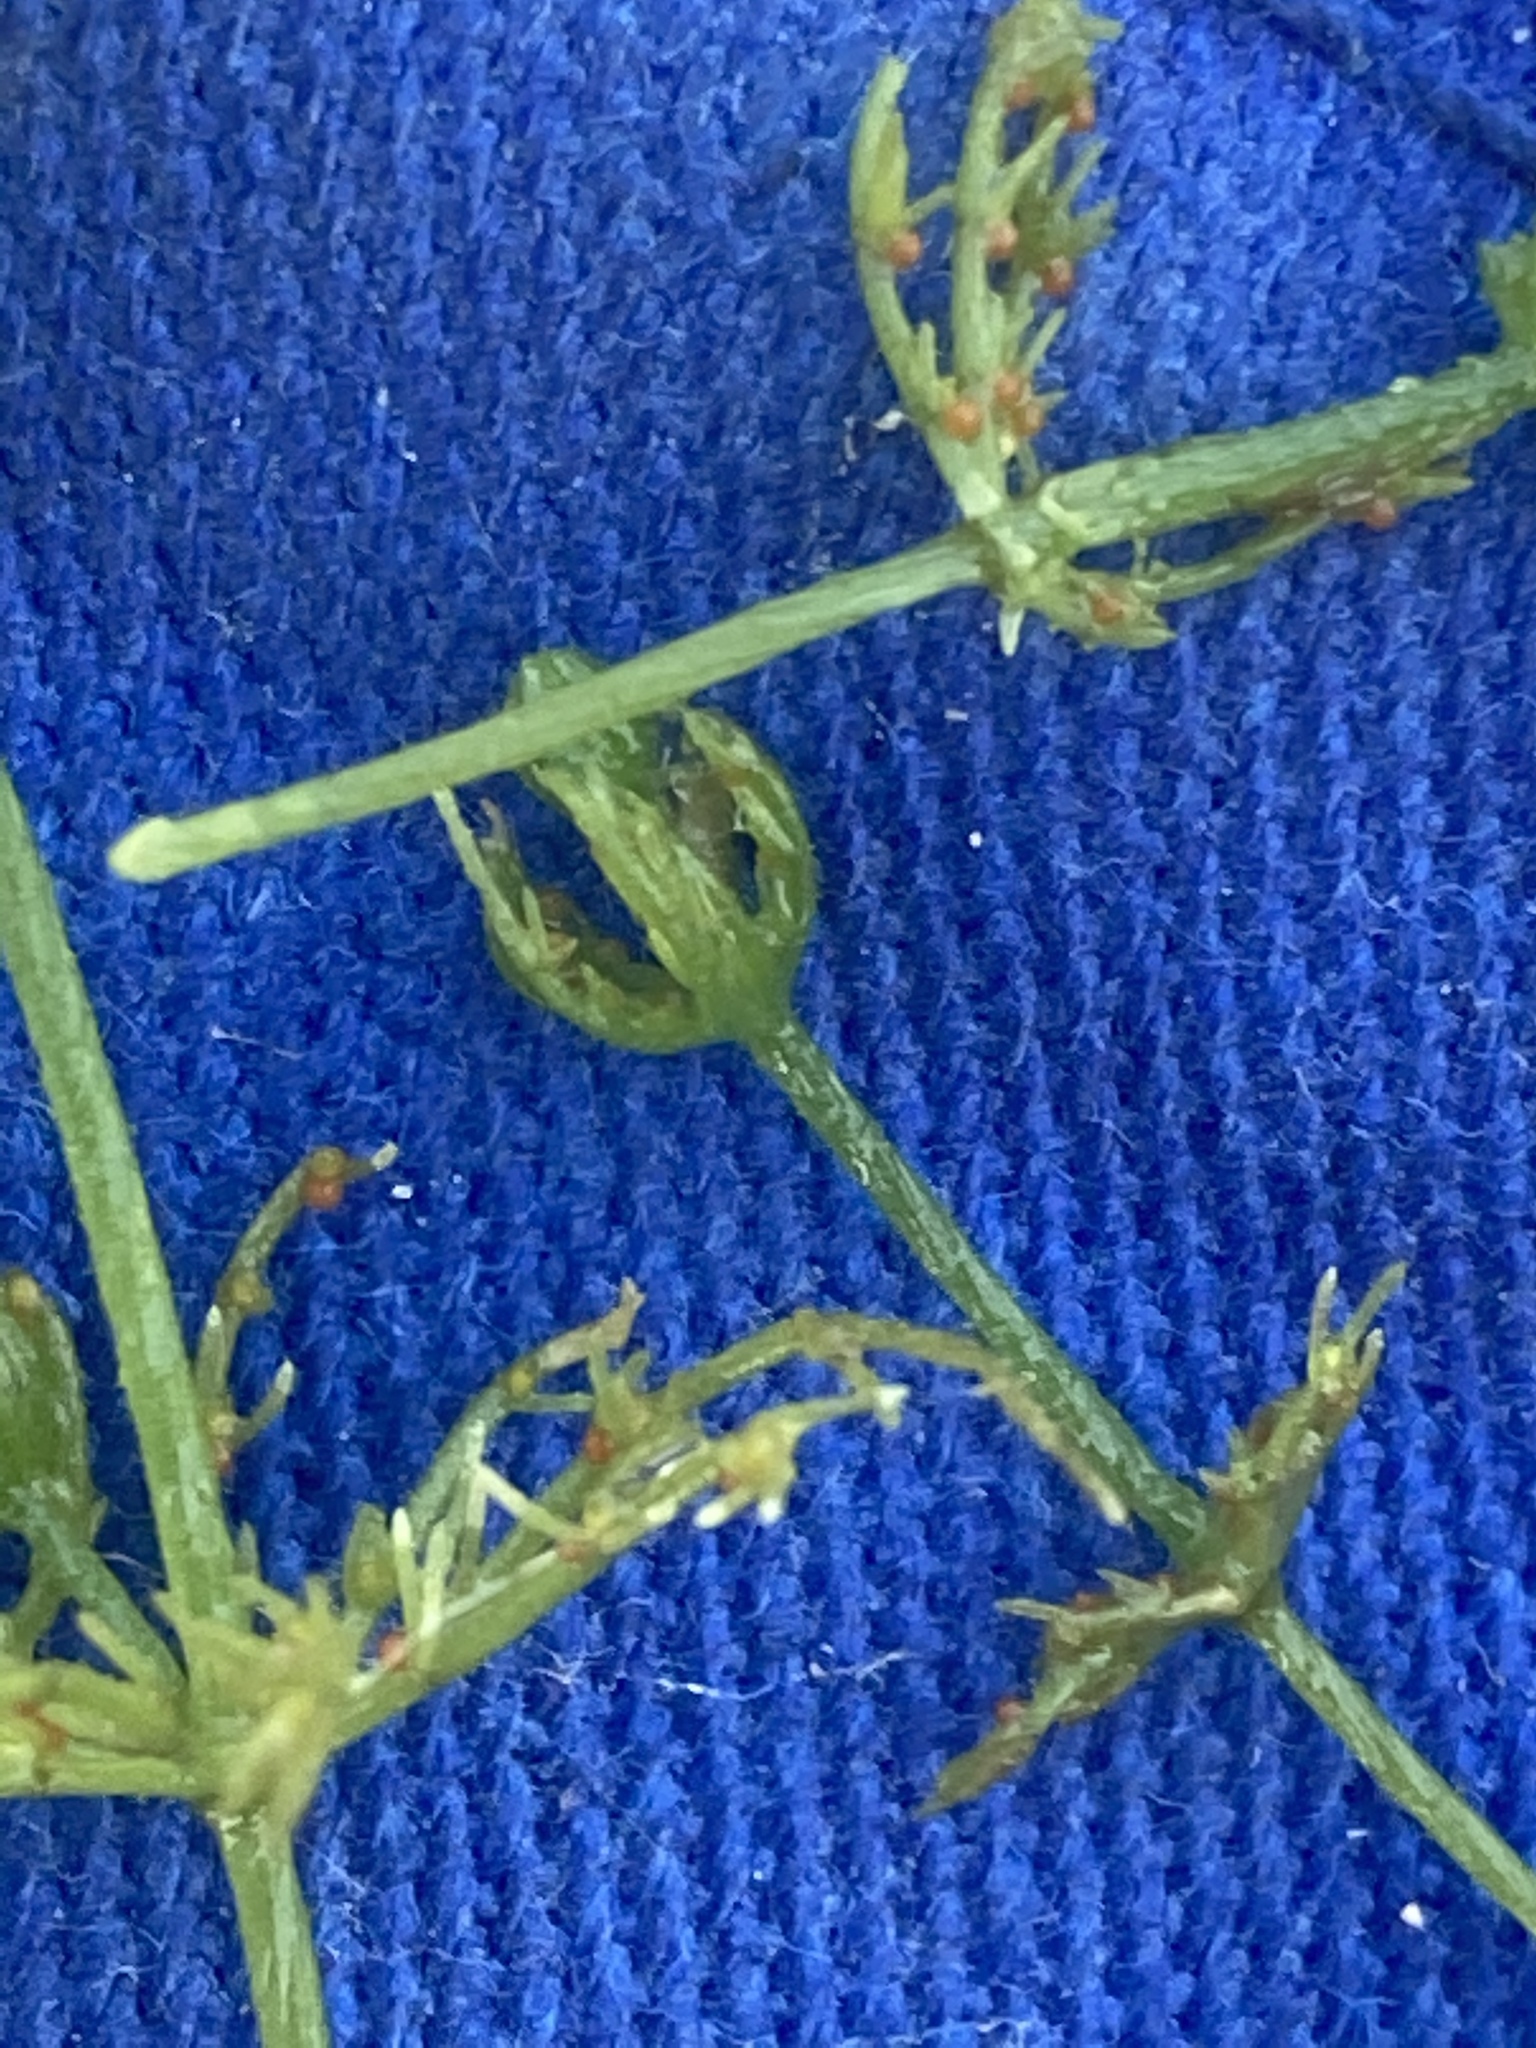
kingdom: Plantae
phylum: Charophyta
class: Charophyceae
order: Charales
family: Characeae
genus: Chara
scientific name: Chara vulgaris
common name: Common stonewort
